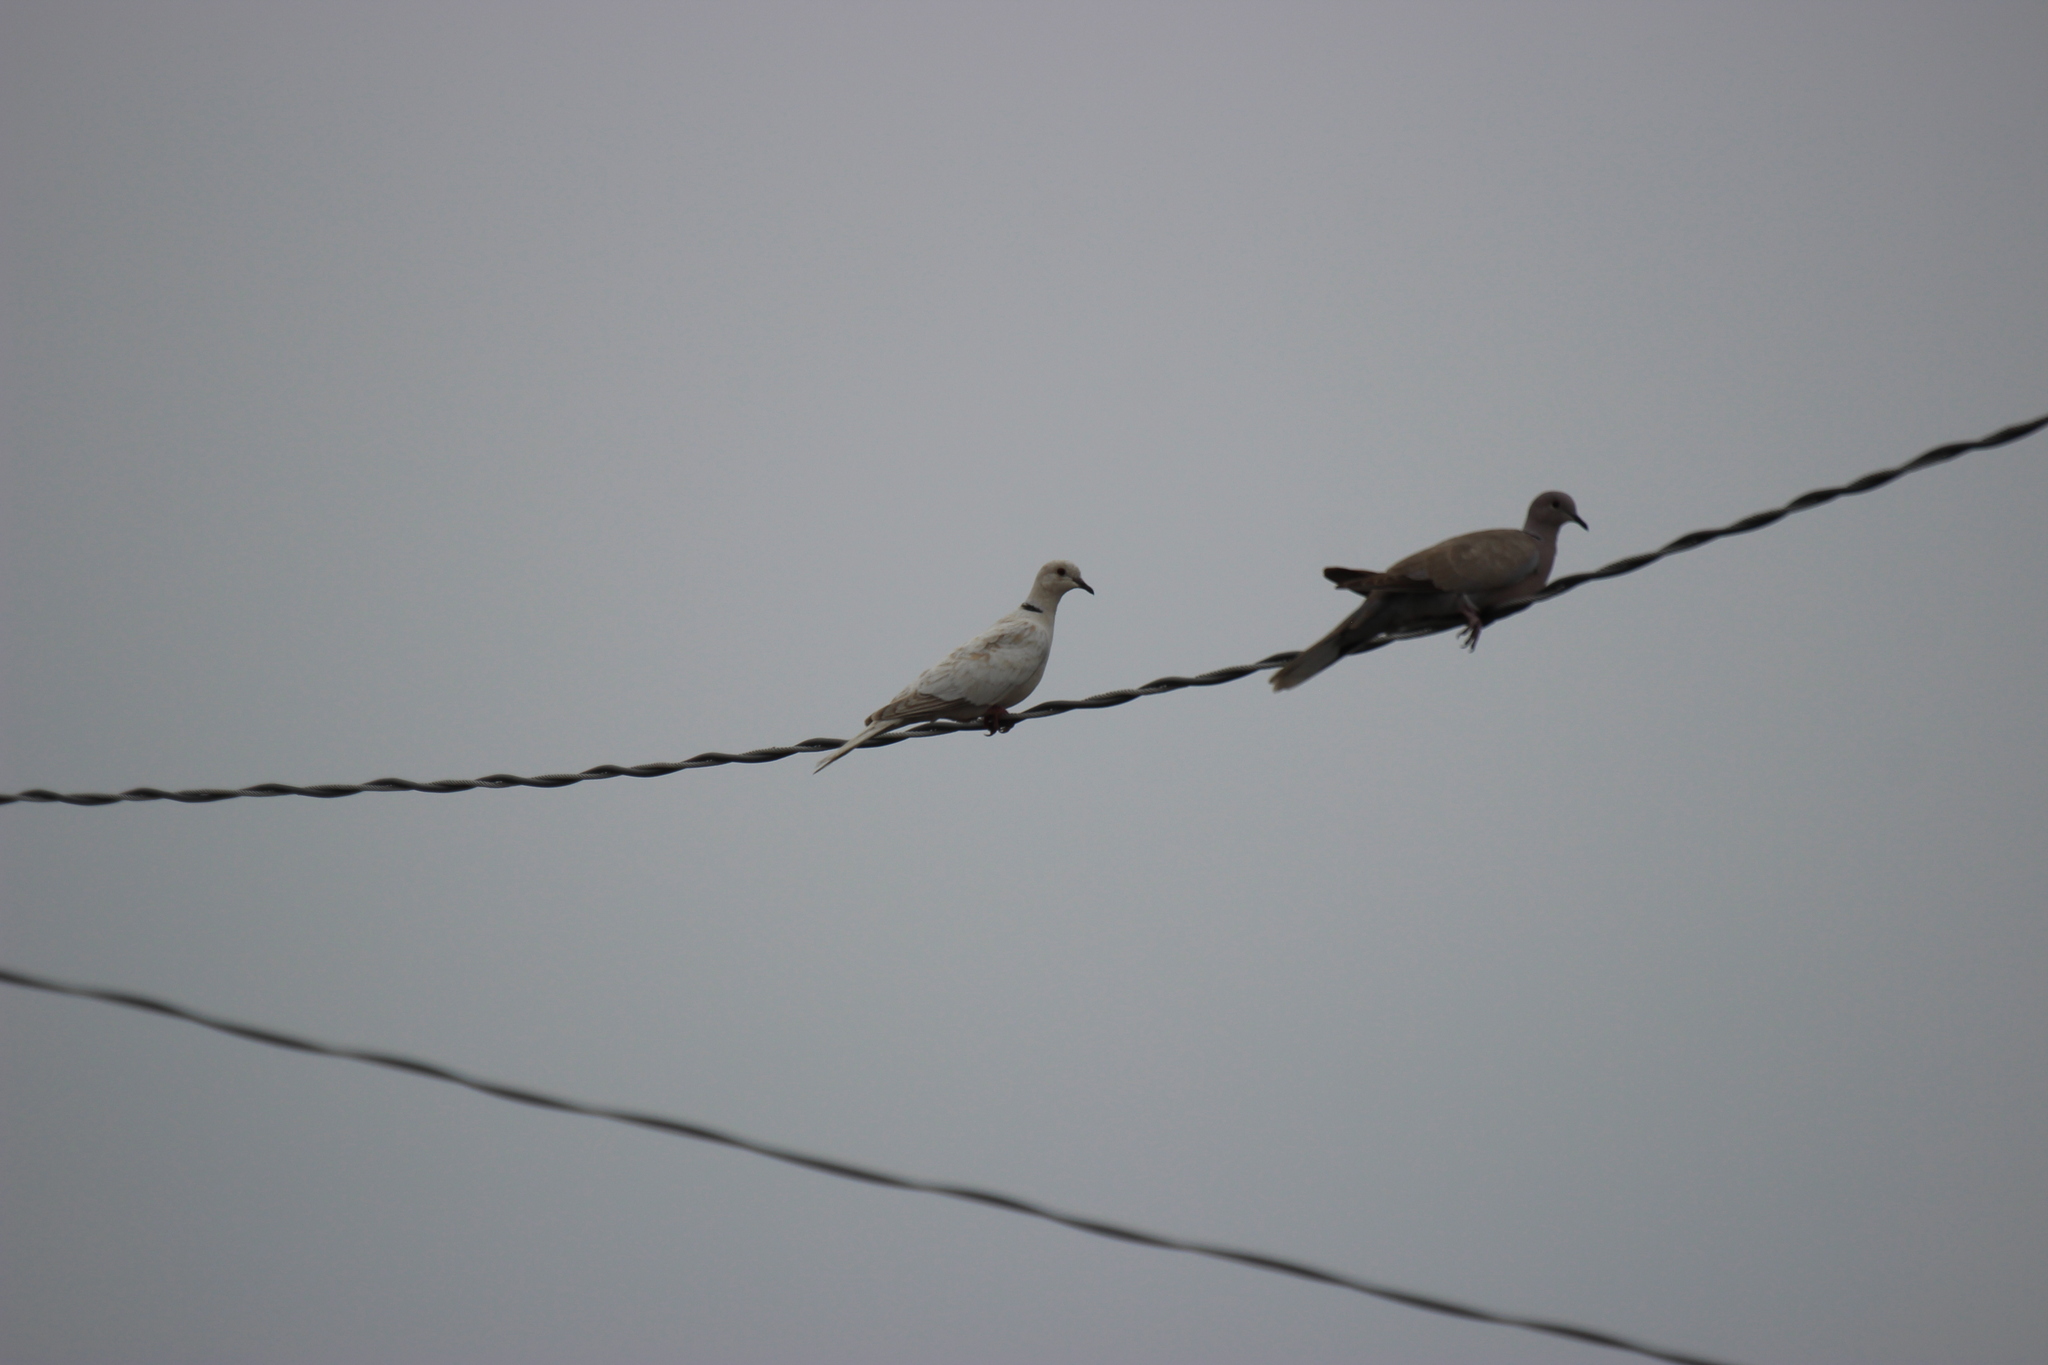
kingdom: Animalia
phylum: Chordata
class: Aves
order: Columbiformes
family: Columbidae
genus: Streptopelia
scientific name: Streptopelia decaocto
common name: Eurasian collared dove
